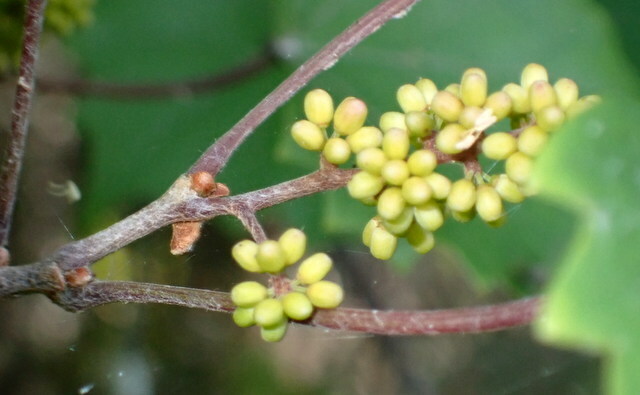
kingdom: Plantae
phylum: Tracheophyta
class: Magnoliopsida
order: Vitales
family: Vitaceae
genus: Vitis
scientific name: Vitis rotundifolia
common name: Muscadine grape
